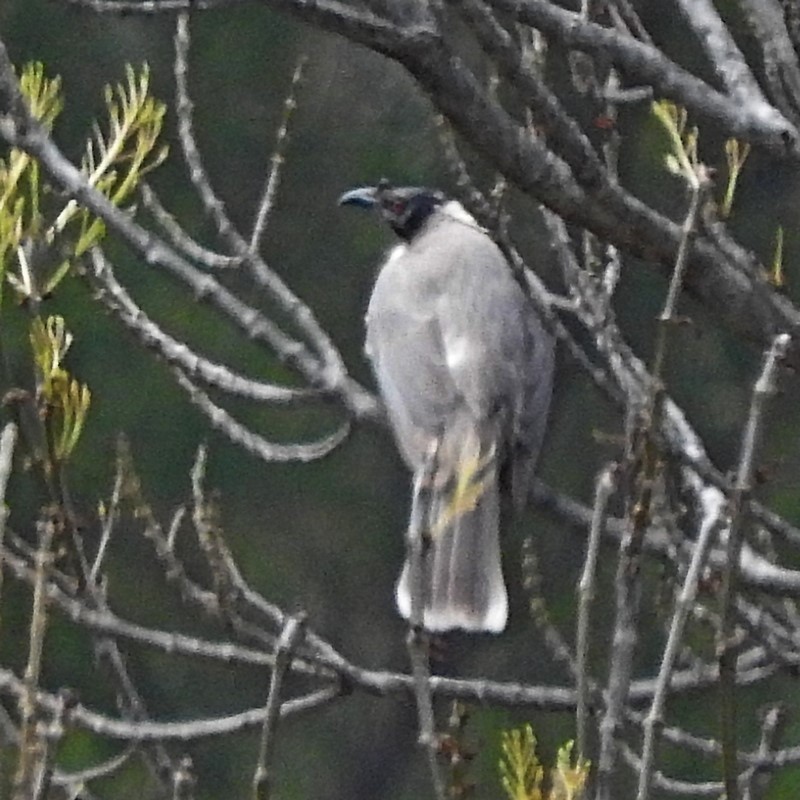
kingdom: Animalia
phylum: Chordata
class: Aves
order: Passeriformes
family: Meliphagidae
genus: Philemon
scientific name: Philemon corniculatus
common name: Noisy friarbird
